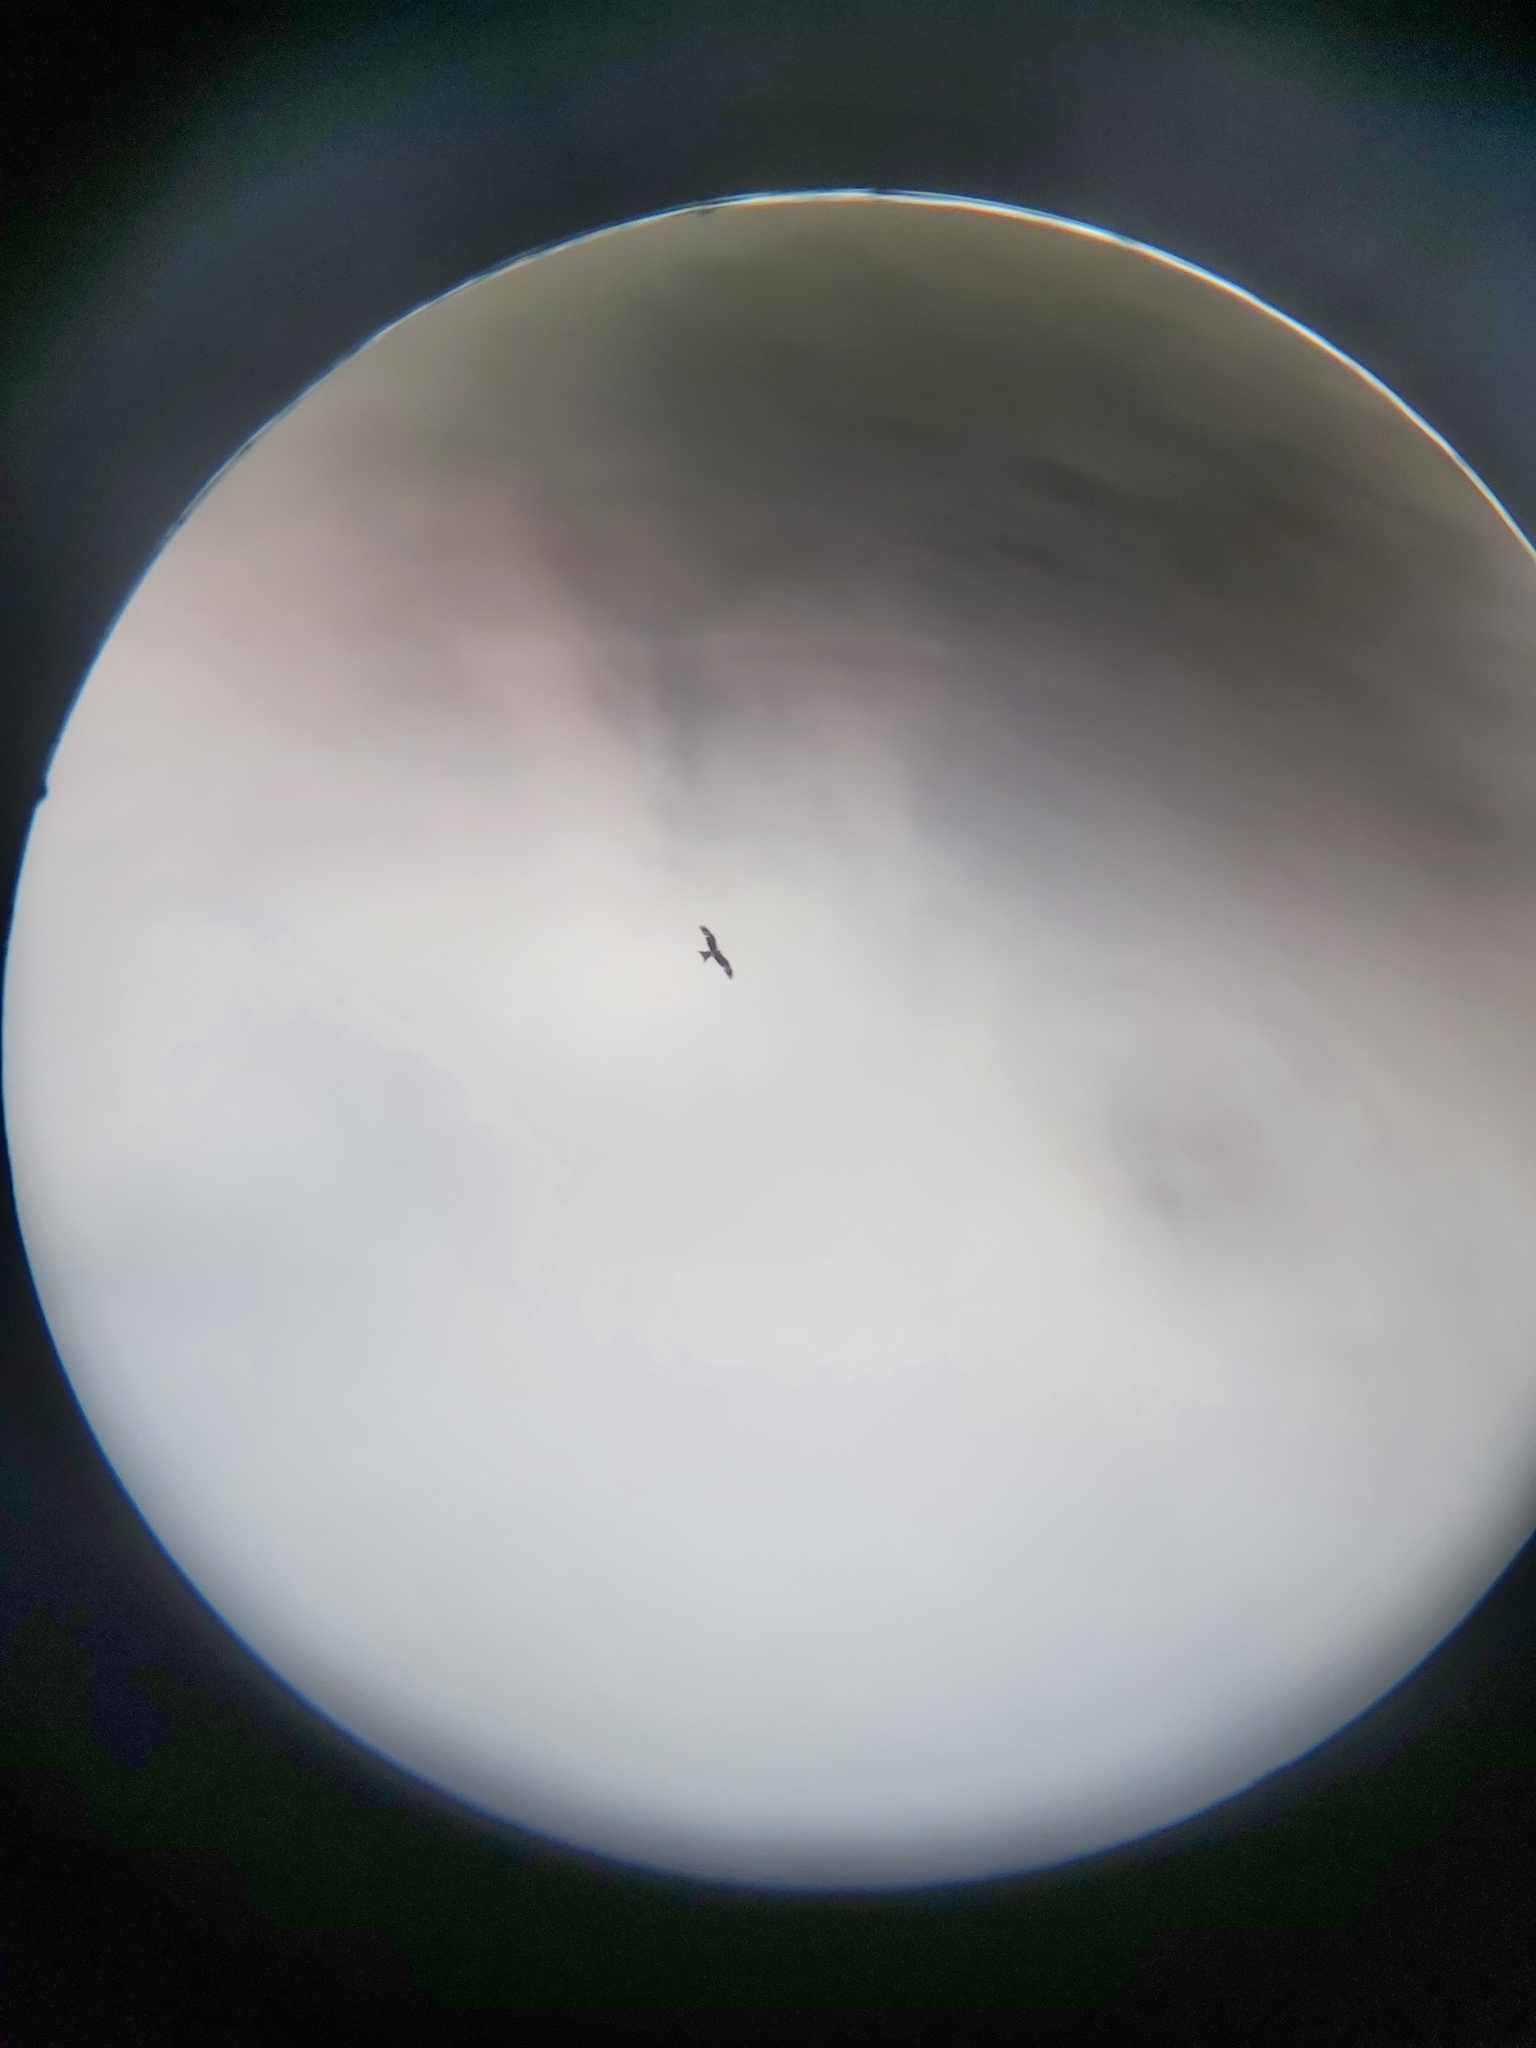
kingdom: Animalia
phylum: Chordata
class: Aves
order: Accipitriformes
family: Accipitridae
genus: Milvus
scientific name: Milvus milvus
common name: Red kite
